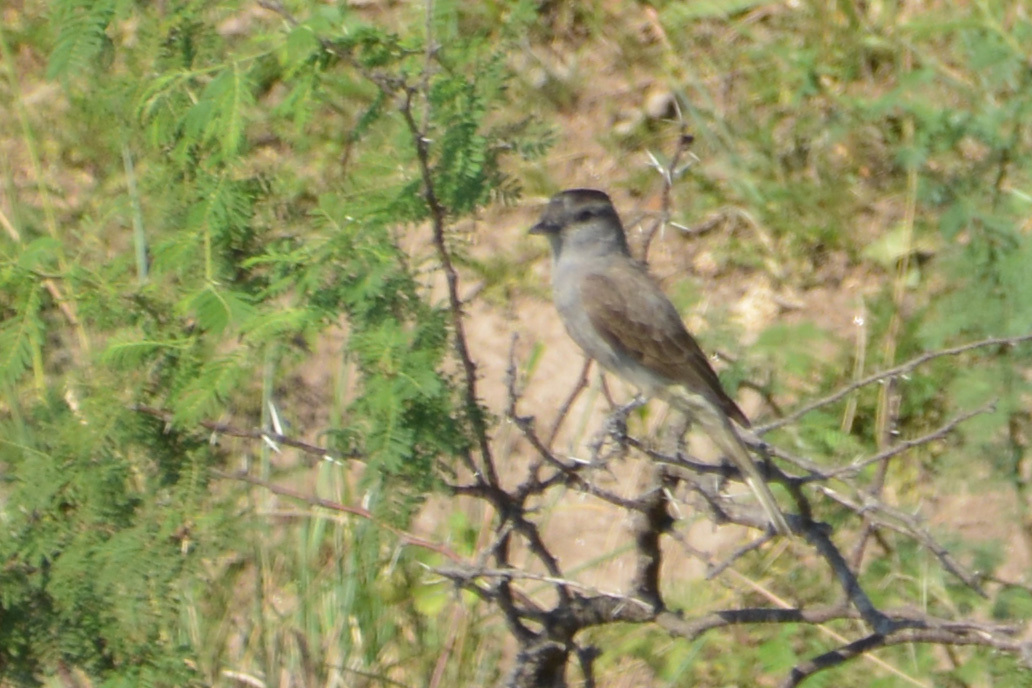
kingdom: Animalia
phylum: Chordata
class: Aves
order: Passeriformes
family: Tyrannidae
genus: Empidonomus
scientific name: Empidonomus aurantioatrocristatus
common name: Crowned slaty flycatcher
